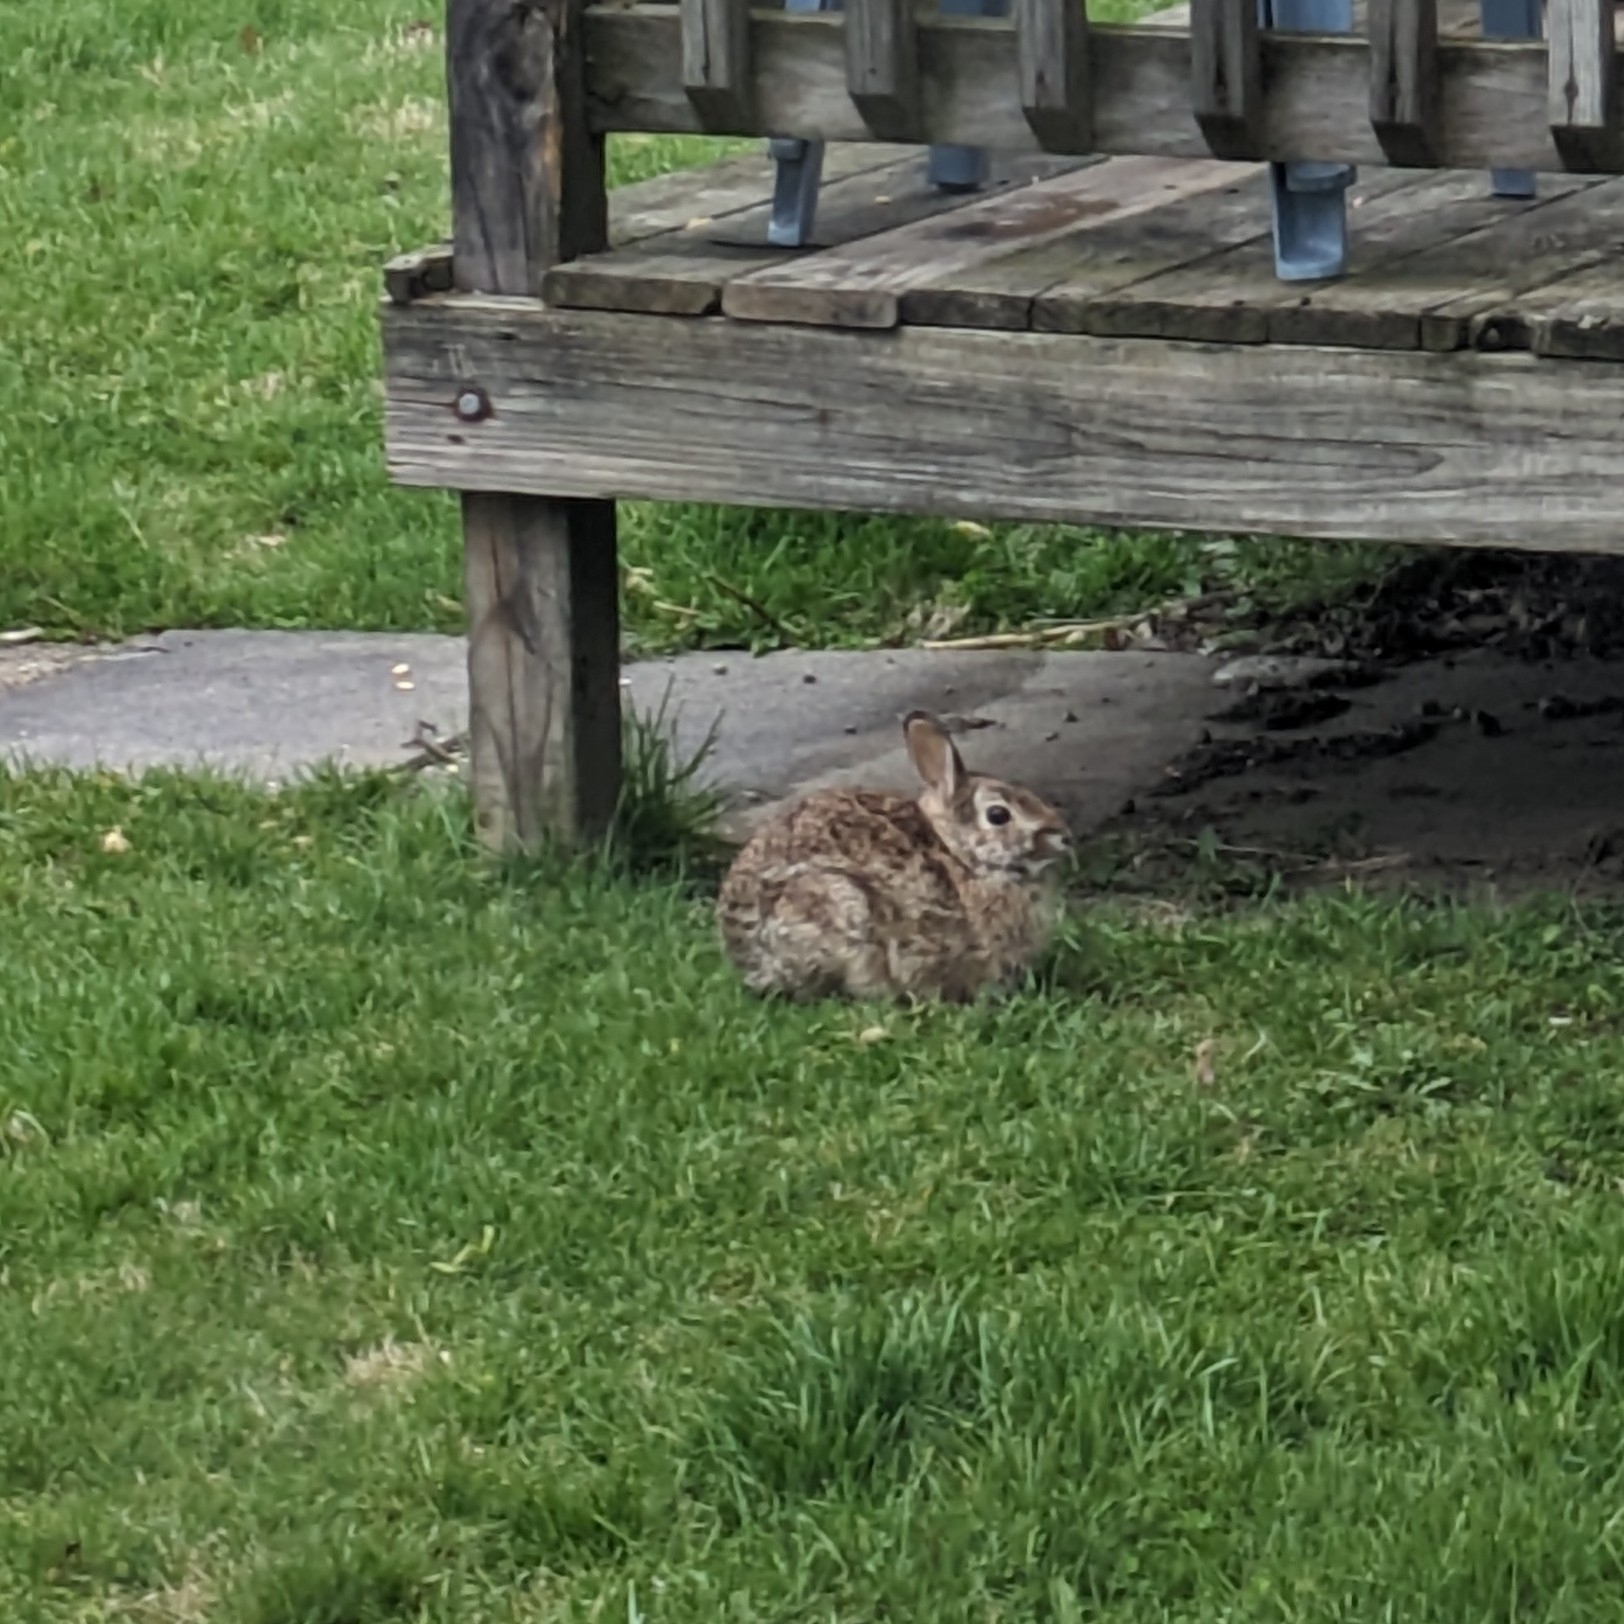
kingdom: Animalia
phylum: Chordata
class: Mammalia
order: Lagomorpha
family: Leporidae
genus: Sylvilagus
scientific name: Sylvilagus floridanus
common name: Eastern cottontail
